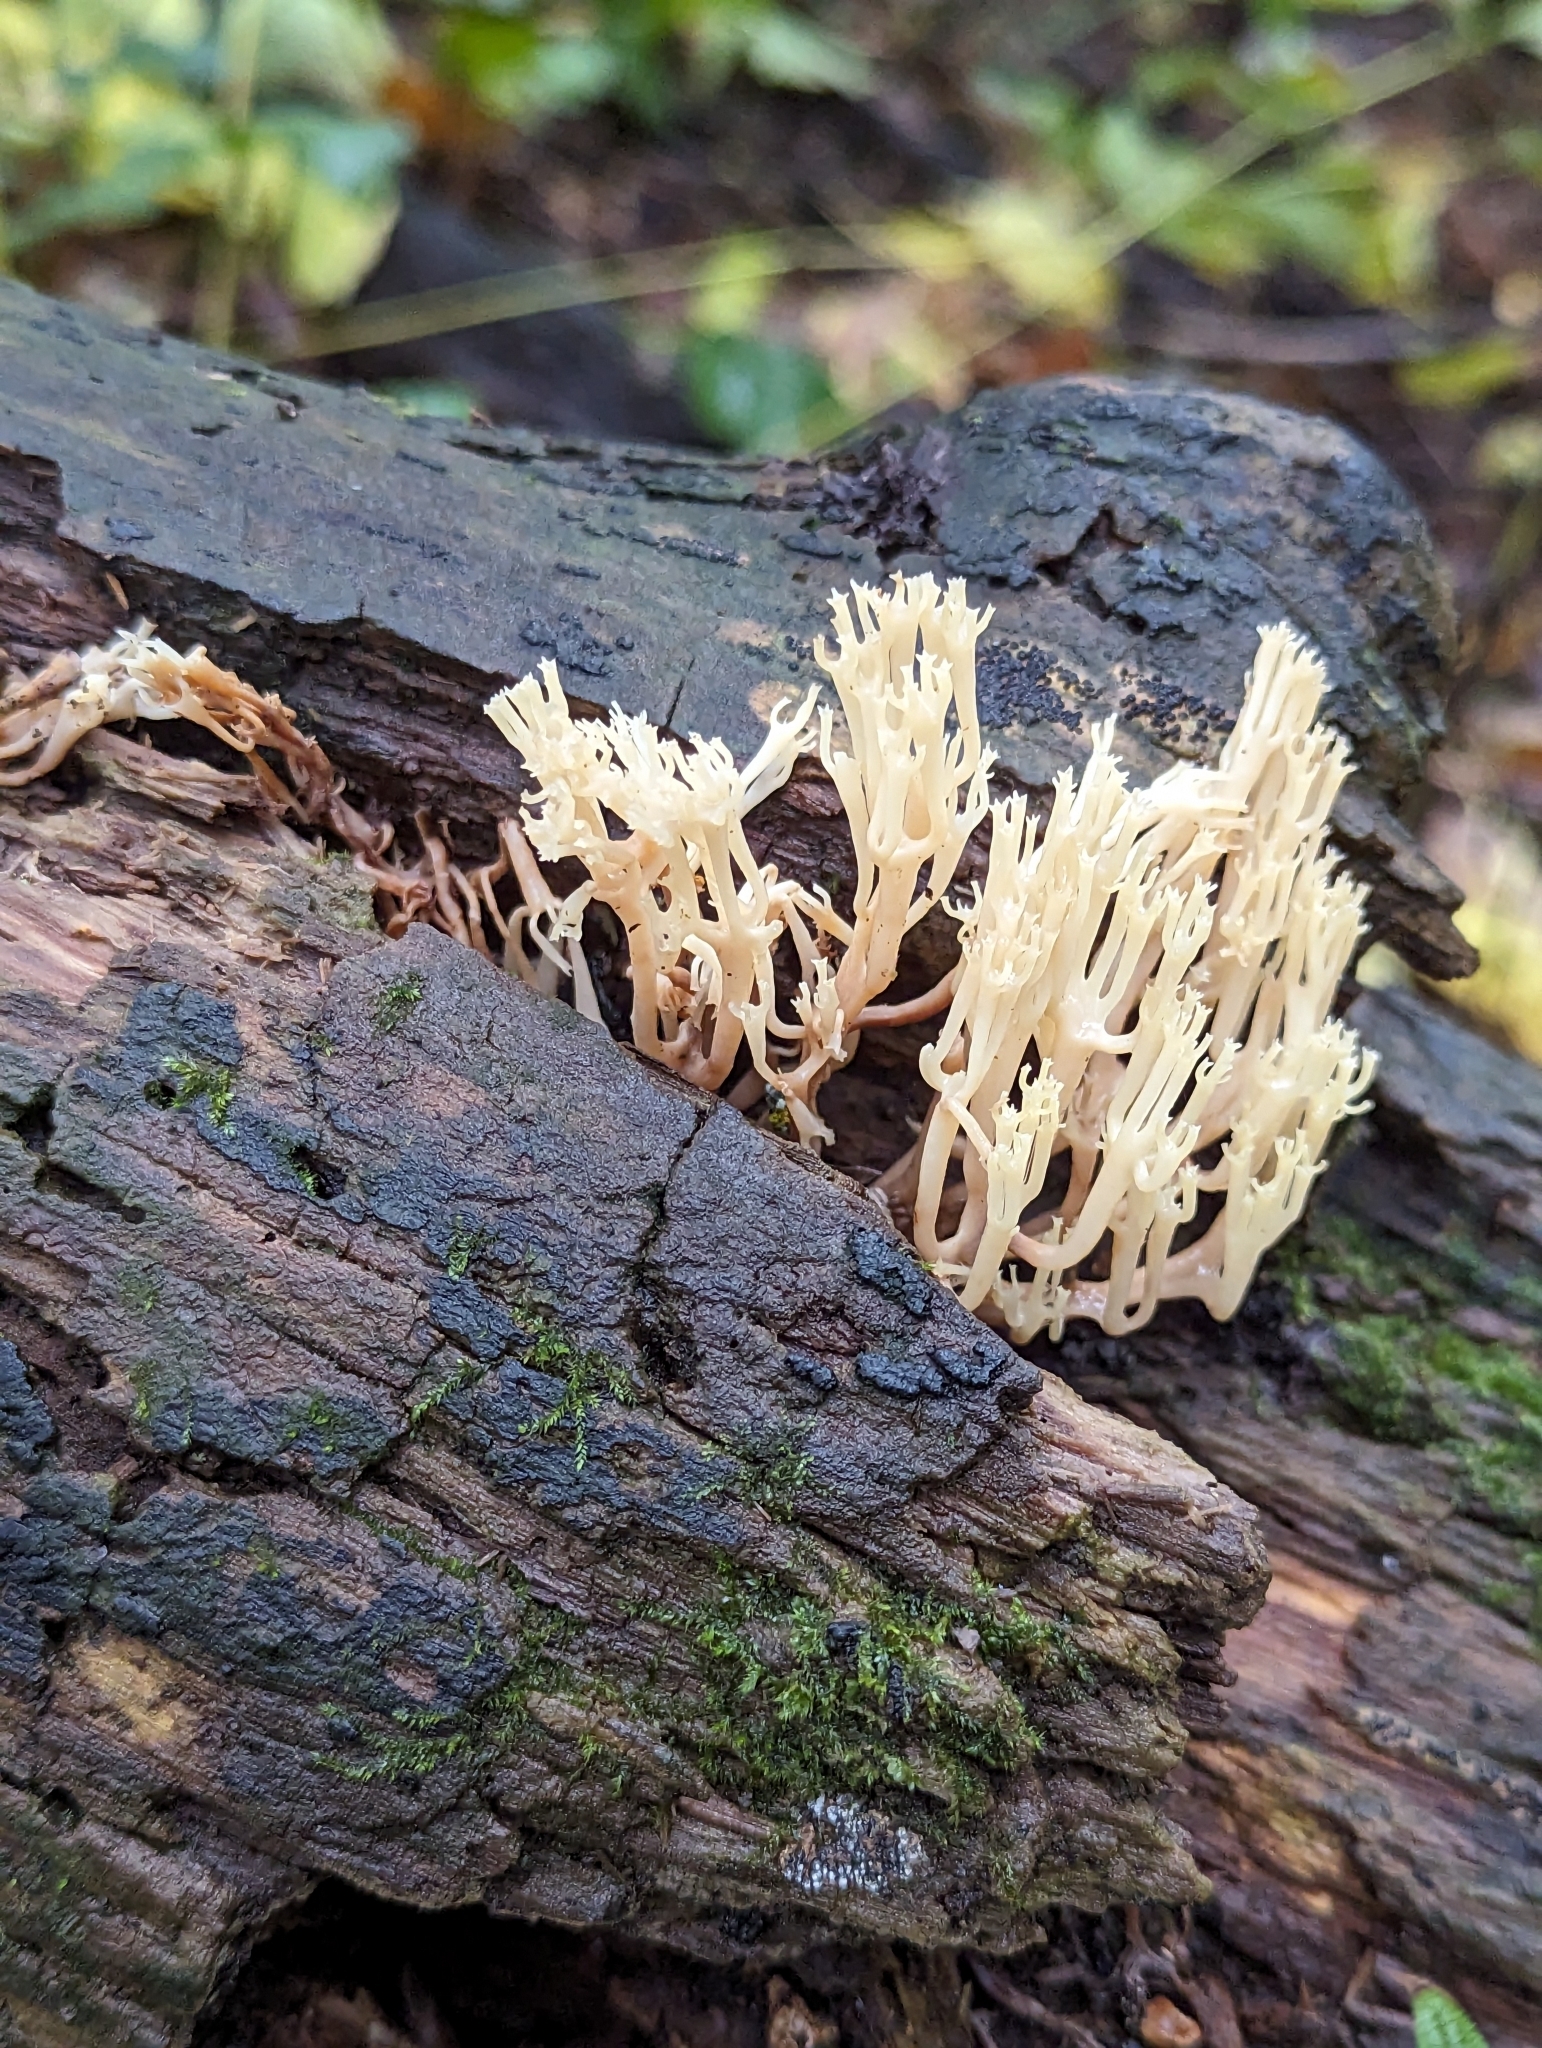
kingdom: Fungi
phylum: Basidiomycota
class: Agaricomycetes
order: Russulales
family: Auriscalpiaceae
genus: Artomyces
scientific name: Artomyces pyxidatus
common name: Crown-tipped coral fungus
